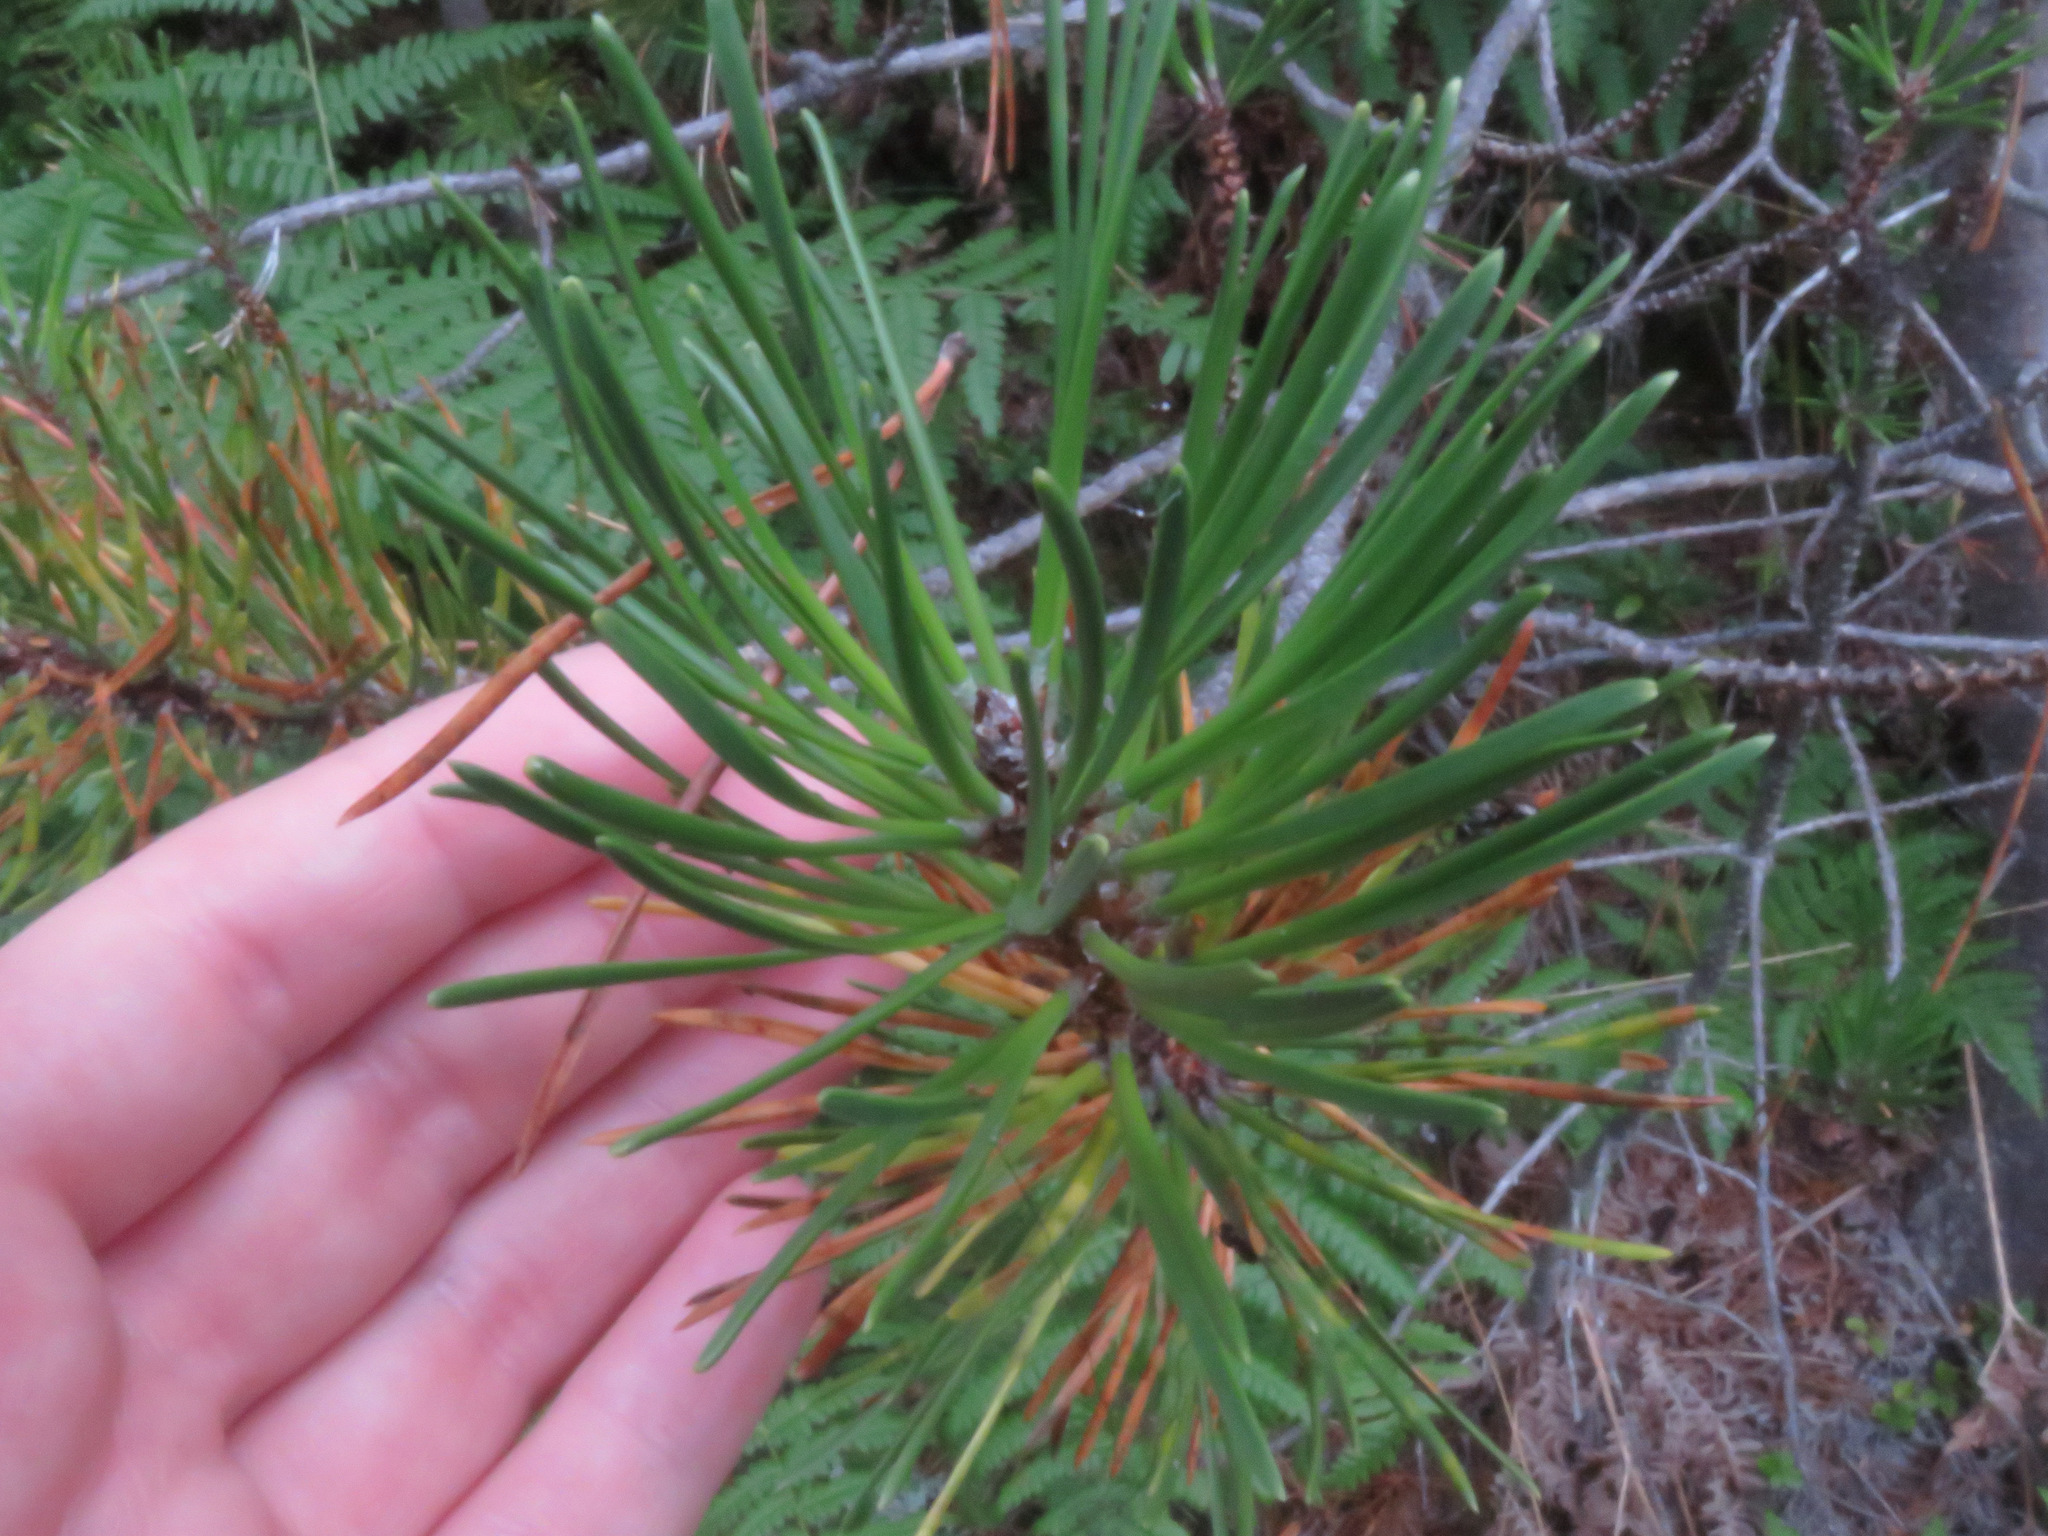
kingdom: Plantae
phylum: Tracheophyta
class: Pinopsida
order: Pinales
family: Pinaceae
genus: Pinus
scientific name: Pinus contorta
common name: Lodgepole pine
